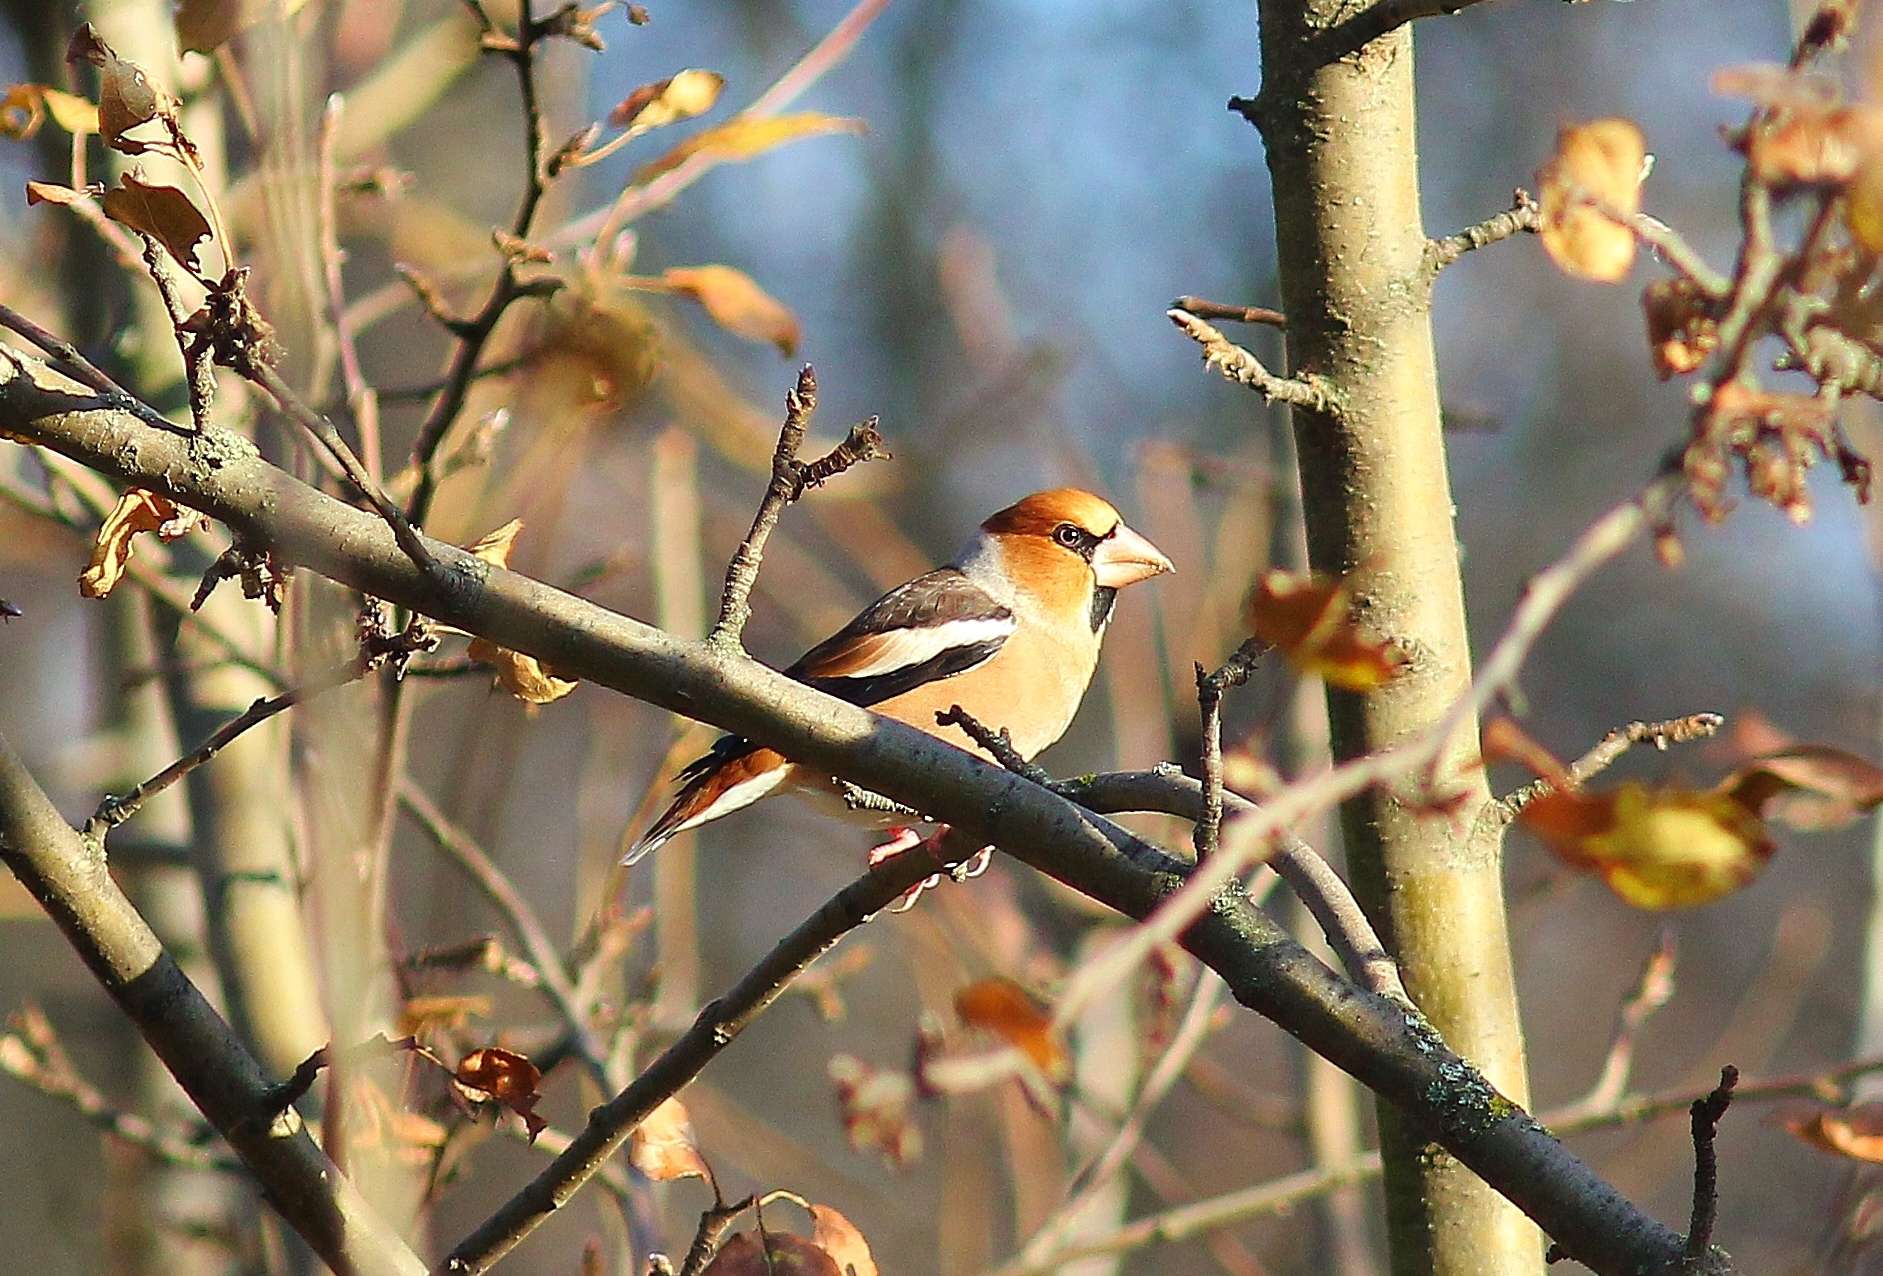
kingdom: Animalia
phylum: Chordata
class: Aves
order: Passeriformes
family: Fringillidae
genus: Coccothraustes
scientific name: Coccothraustes coccothraustes
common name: Hawfinch
